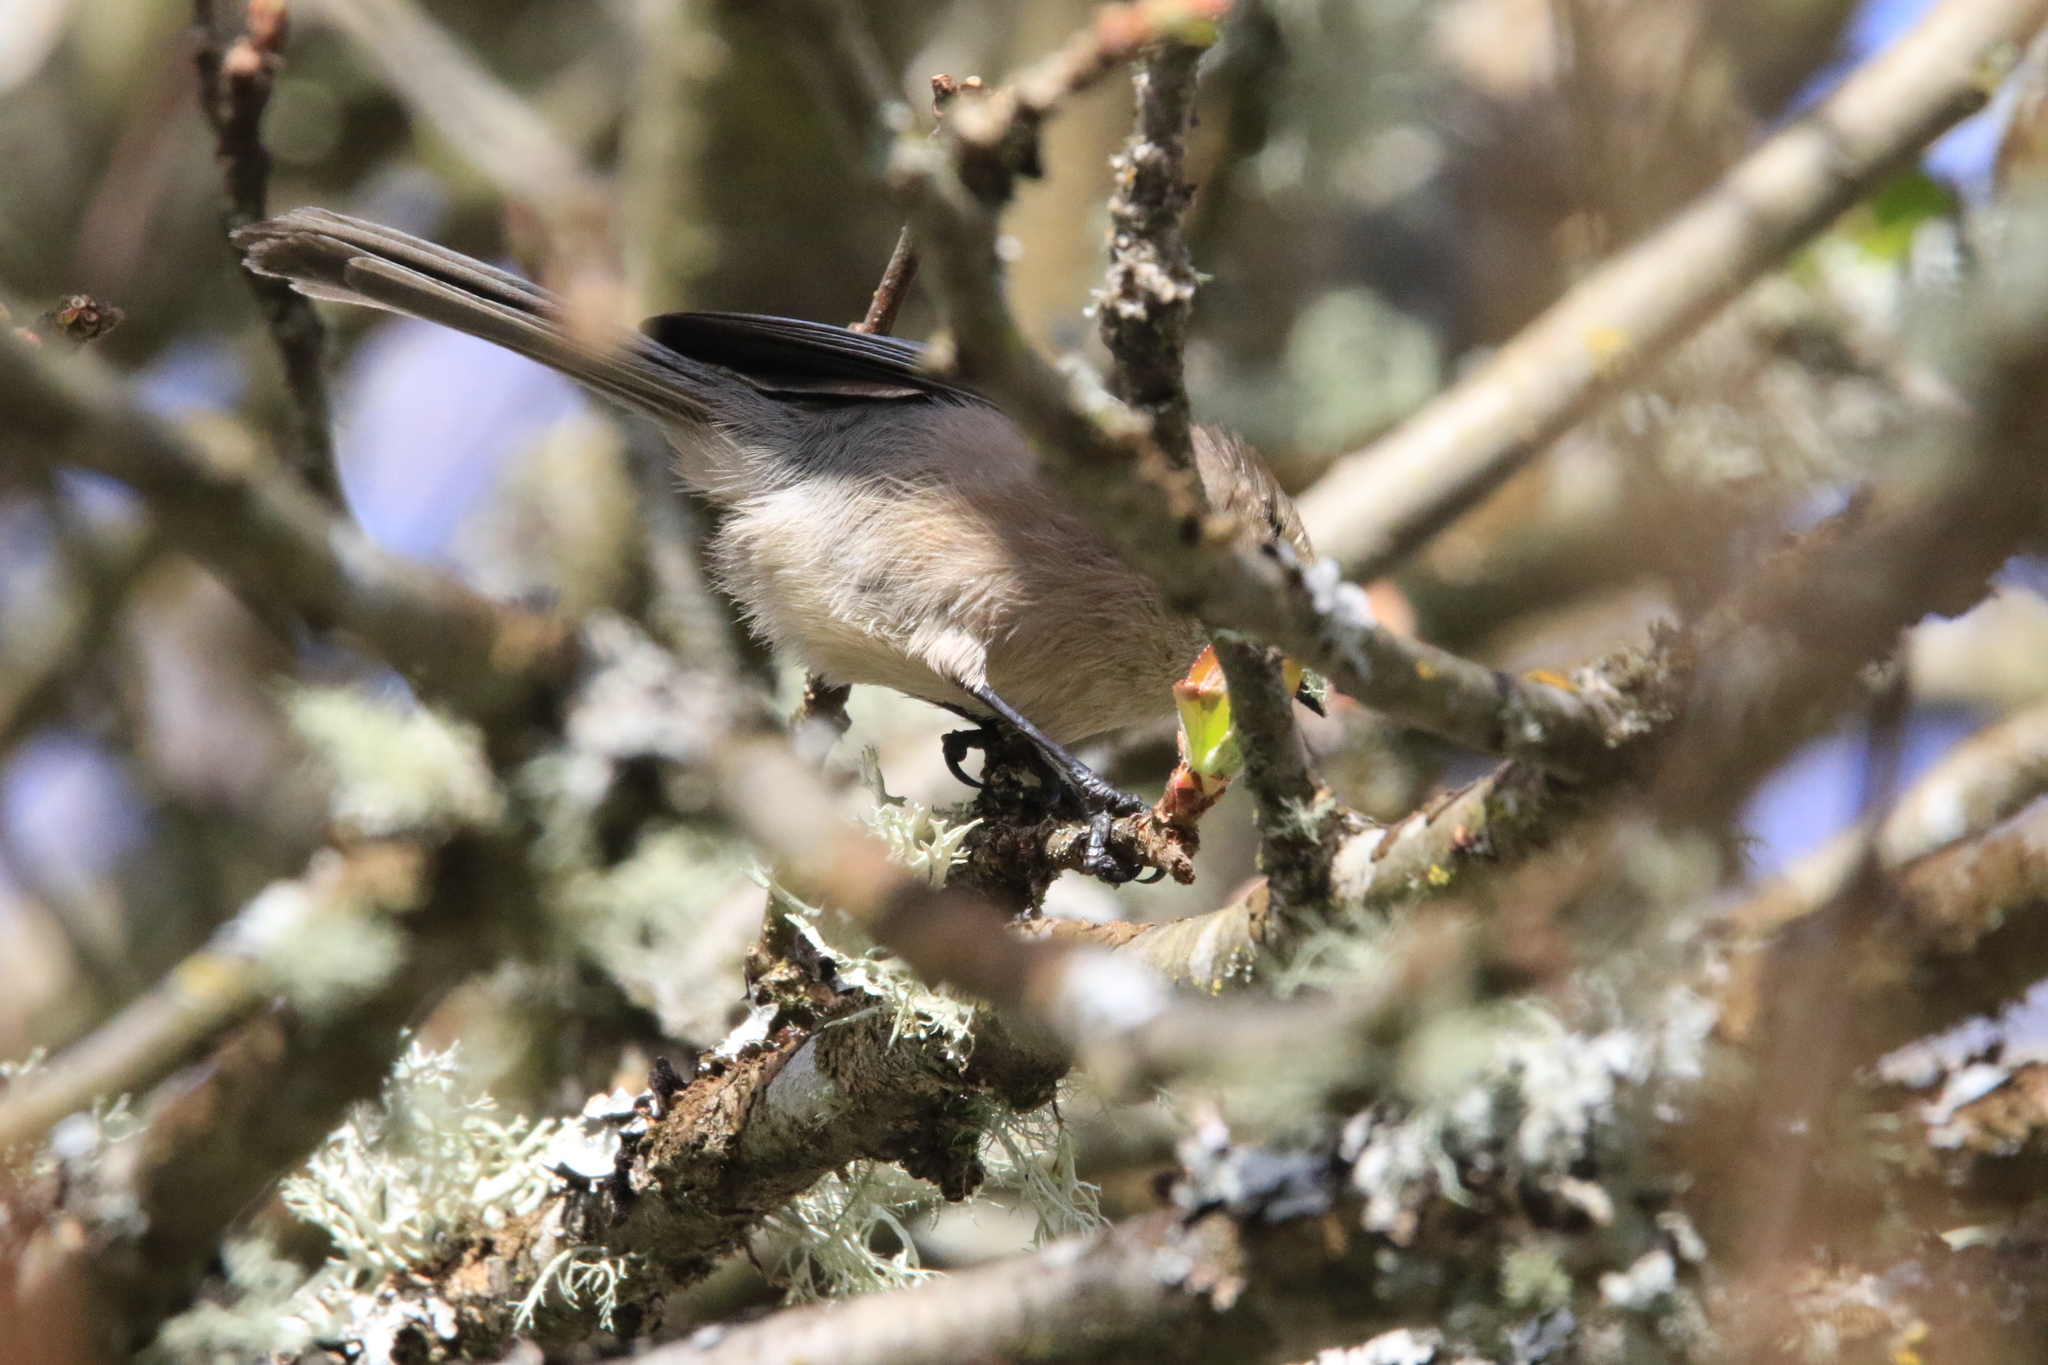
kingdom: Animalia
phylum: Chordata
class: Aves
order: Passeriformes
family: Aegithalidae
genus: Psaltriparus
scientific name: Psaltriparus minimus
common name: American bushtit
